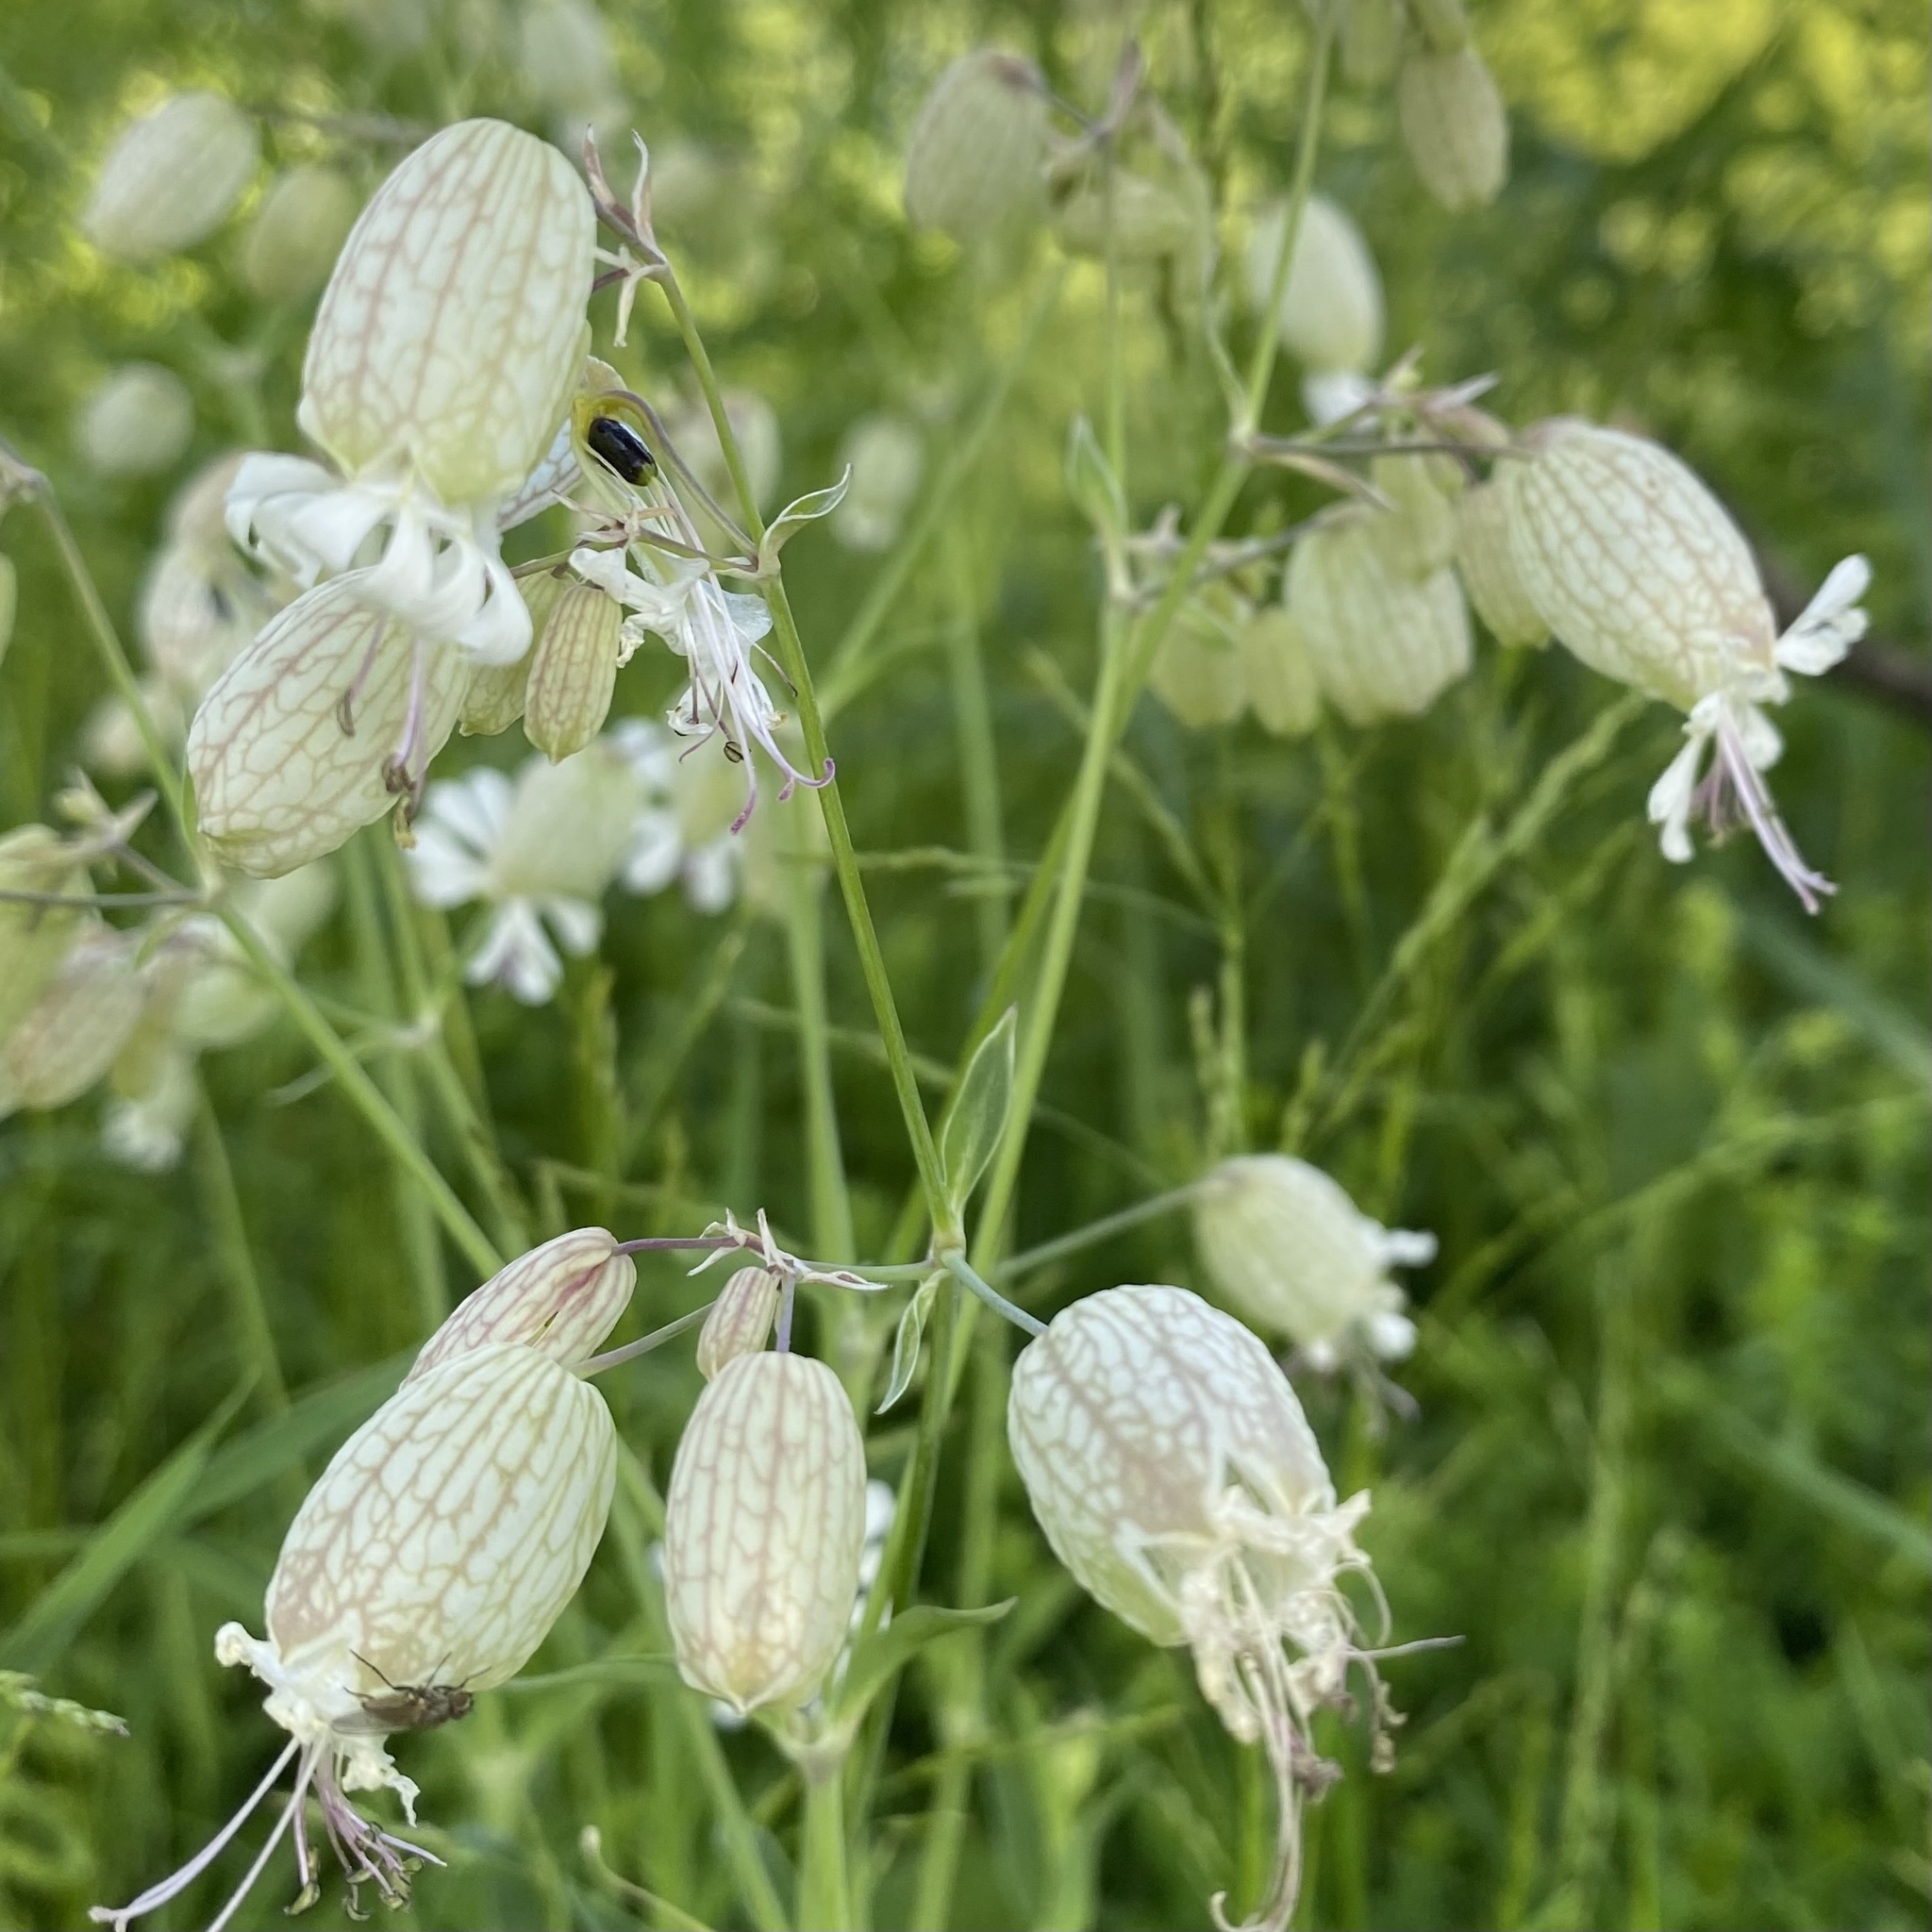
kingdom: Plantae
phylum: Tracheophyta
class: Magnoliopsida
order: Caryophyllales
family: Caryophyllaceae
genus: Silene
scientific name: Silene vulgaris
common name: Bladder campion
